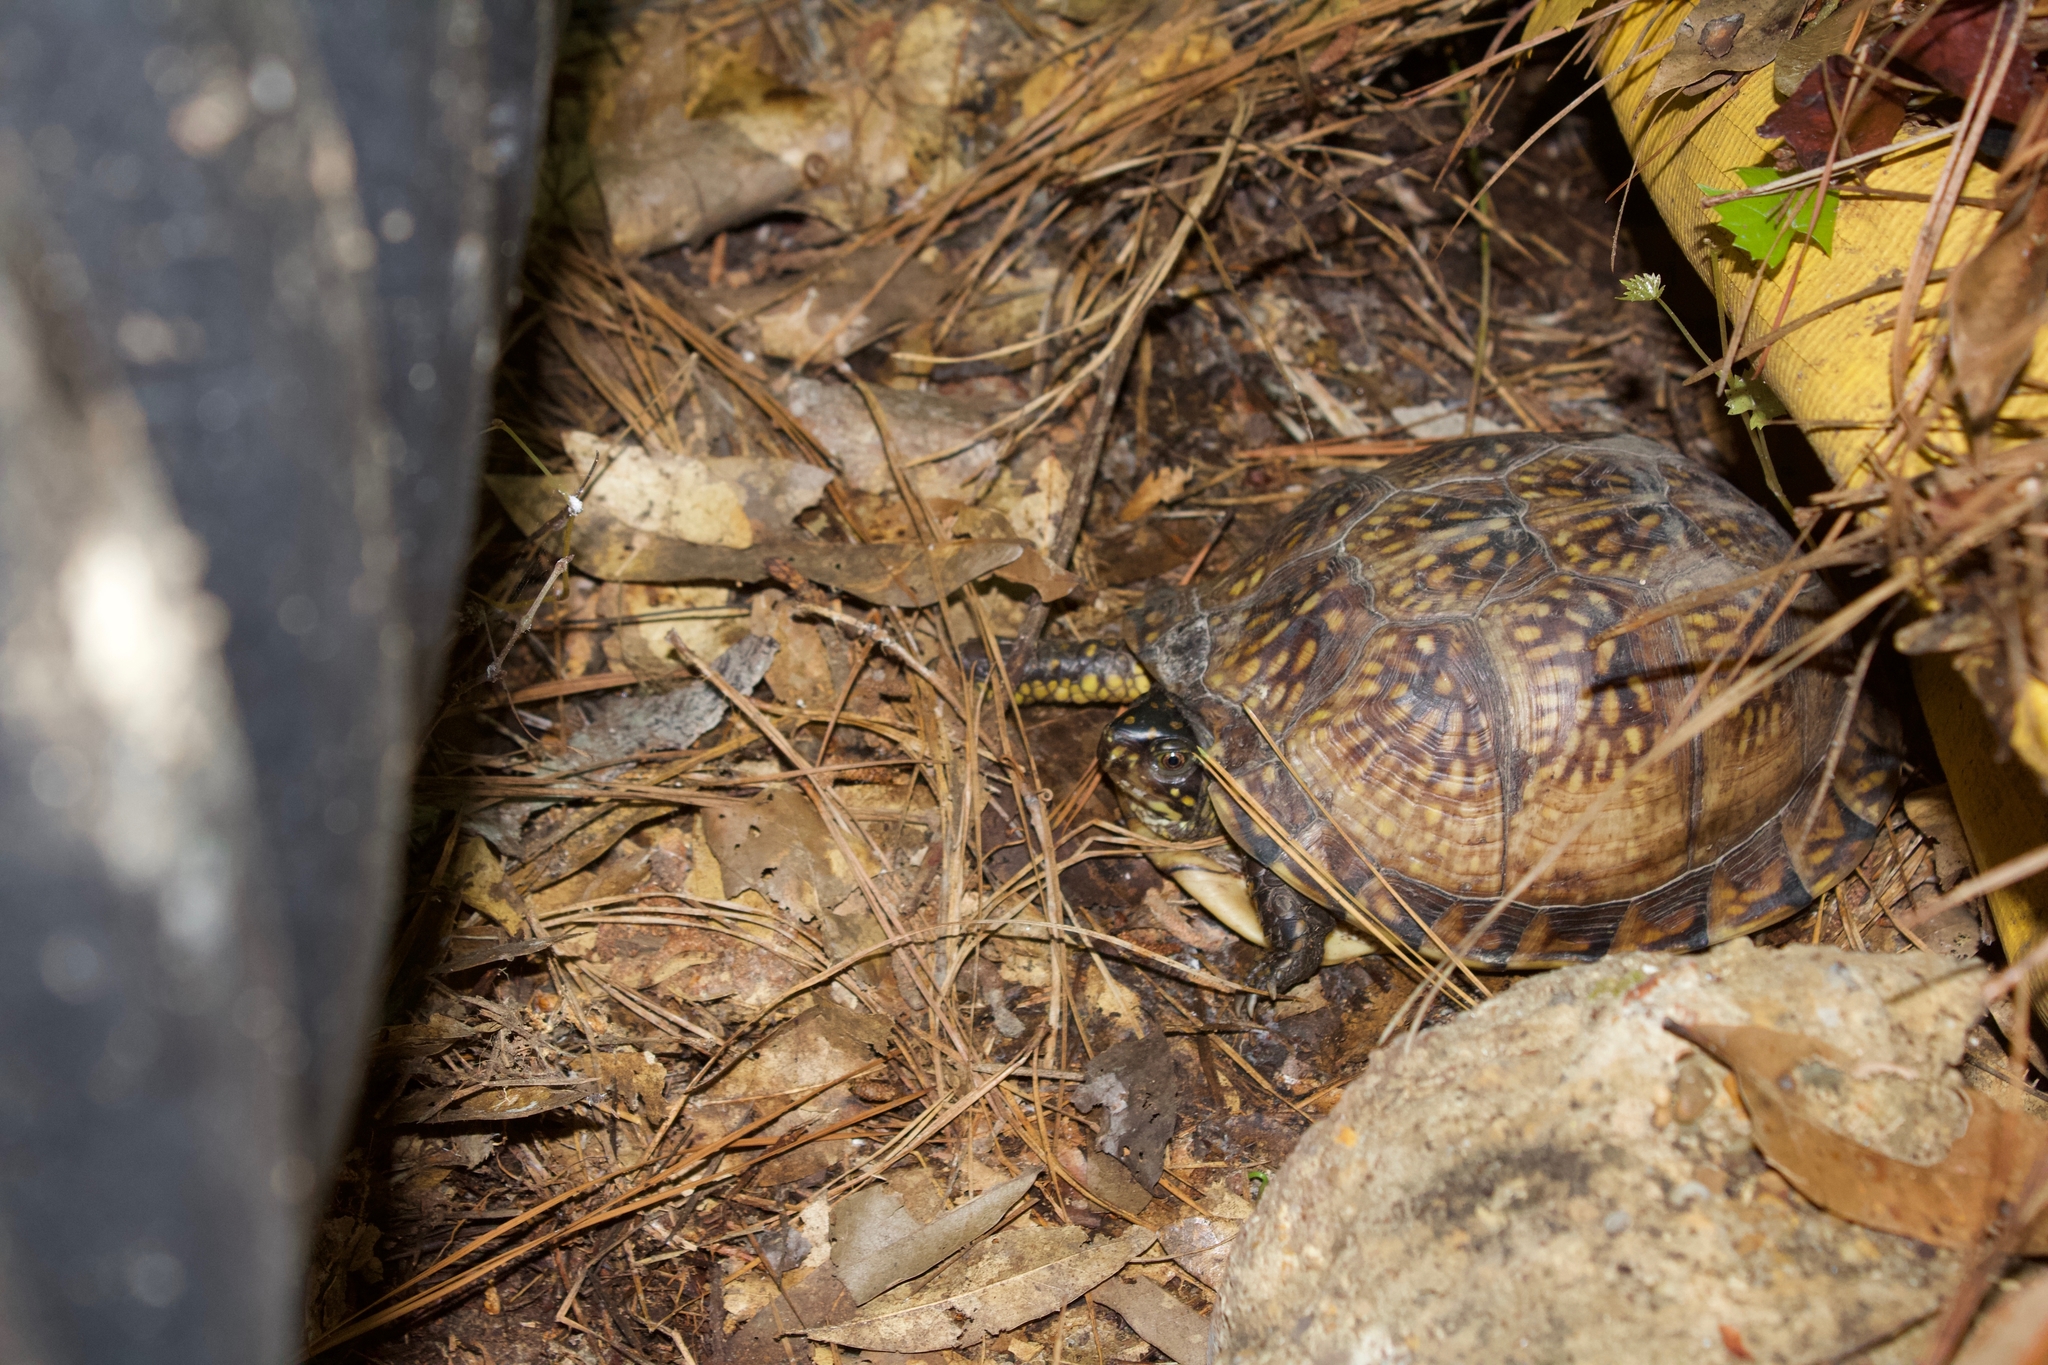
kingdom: Animalia
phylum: Chordata
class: Testudines
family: Emydidae
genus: Terrapene
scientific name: Terrapene carolina
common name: Common box turtle
